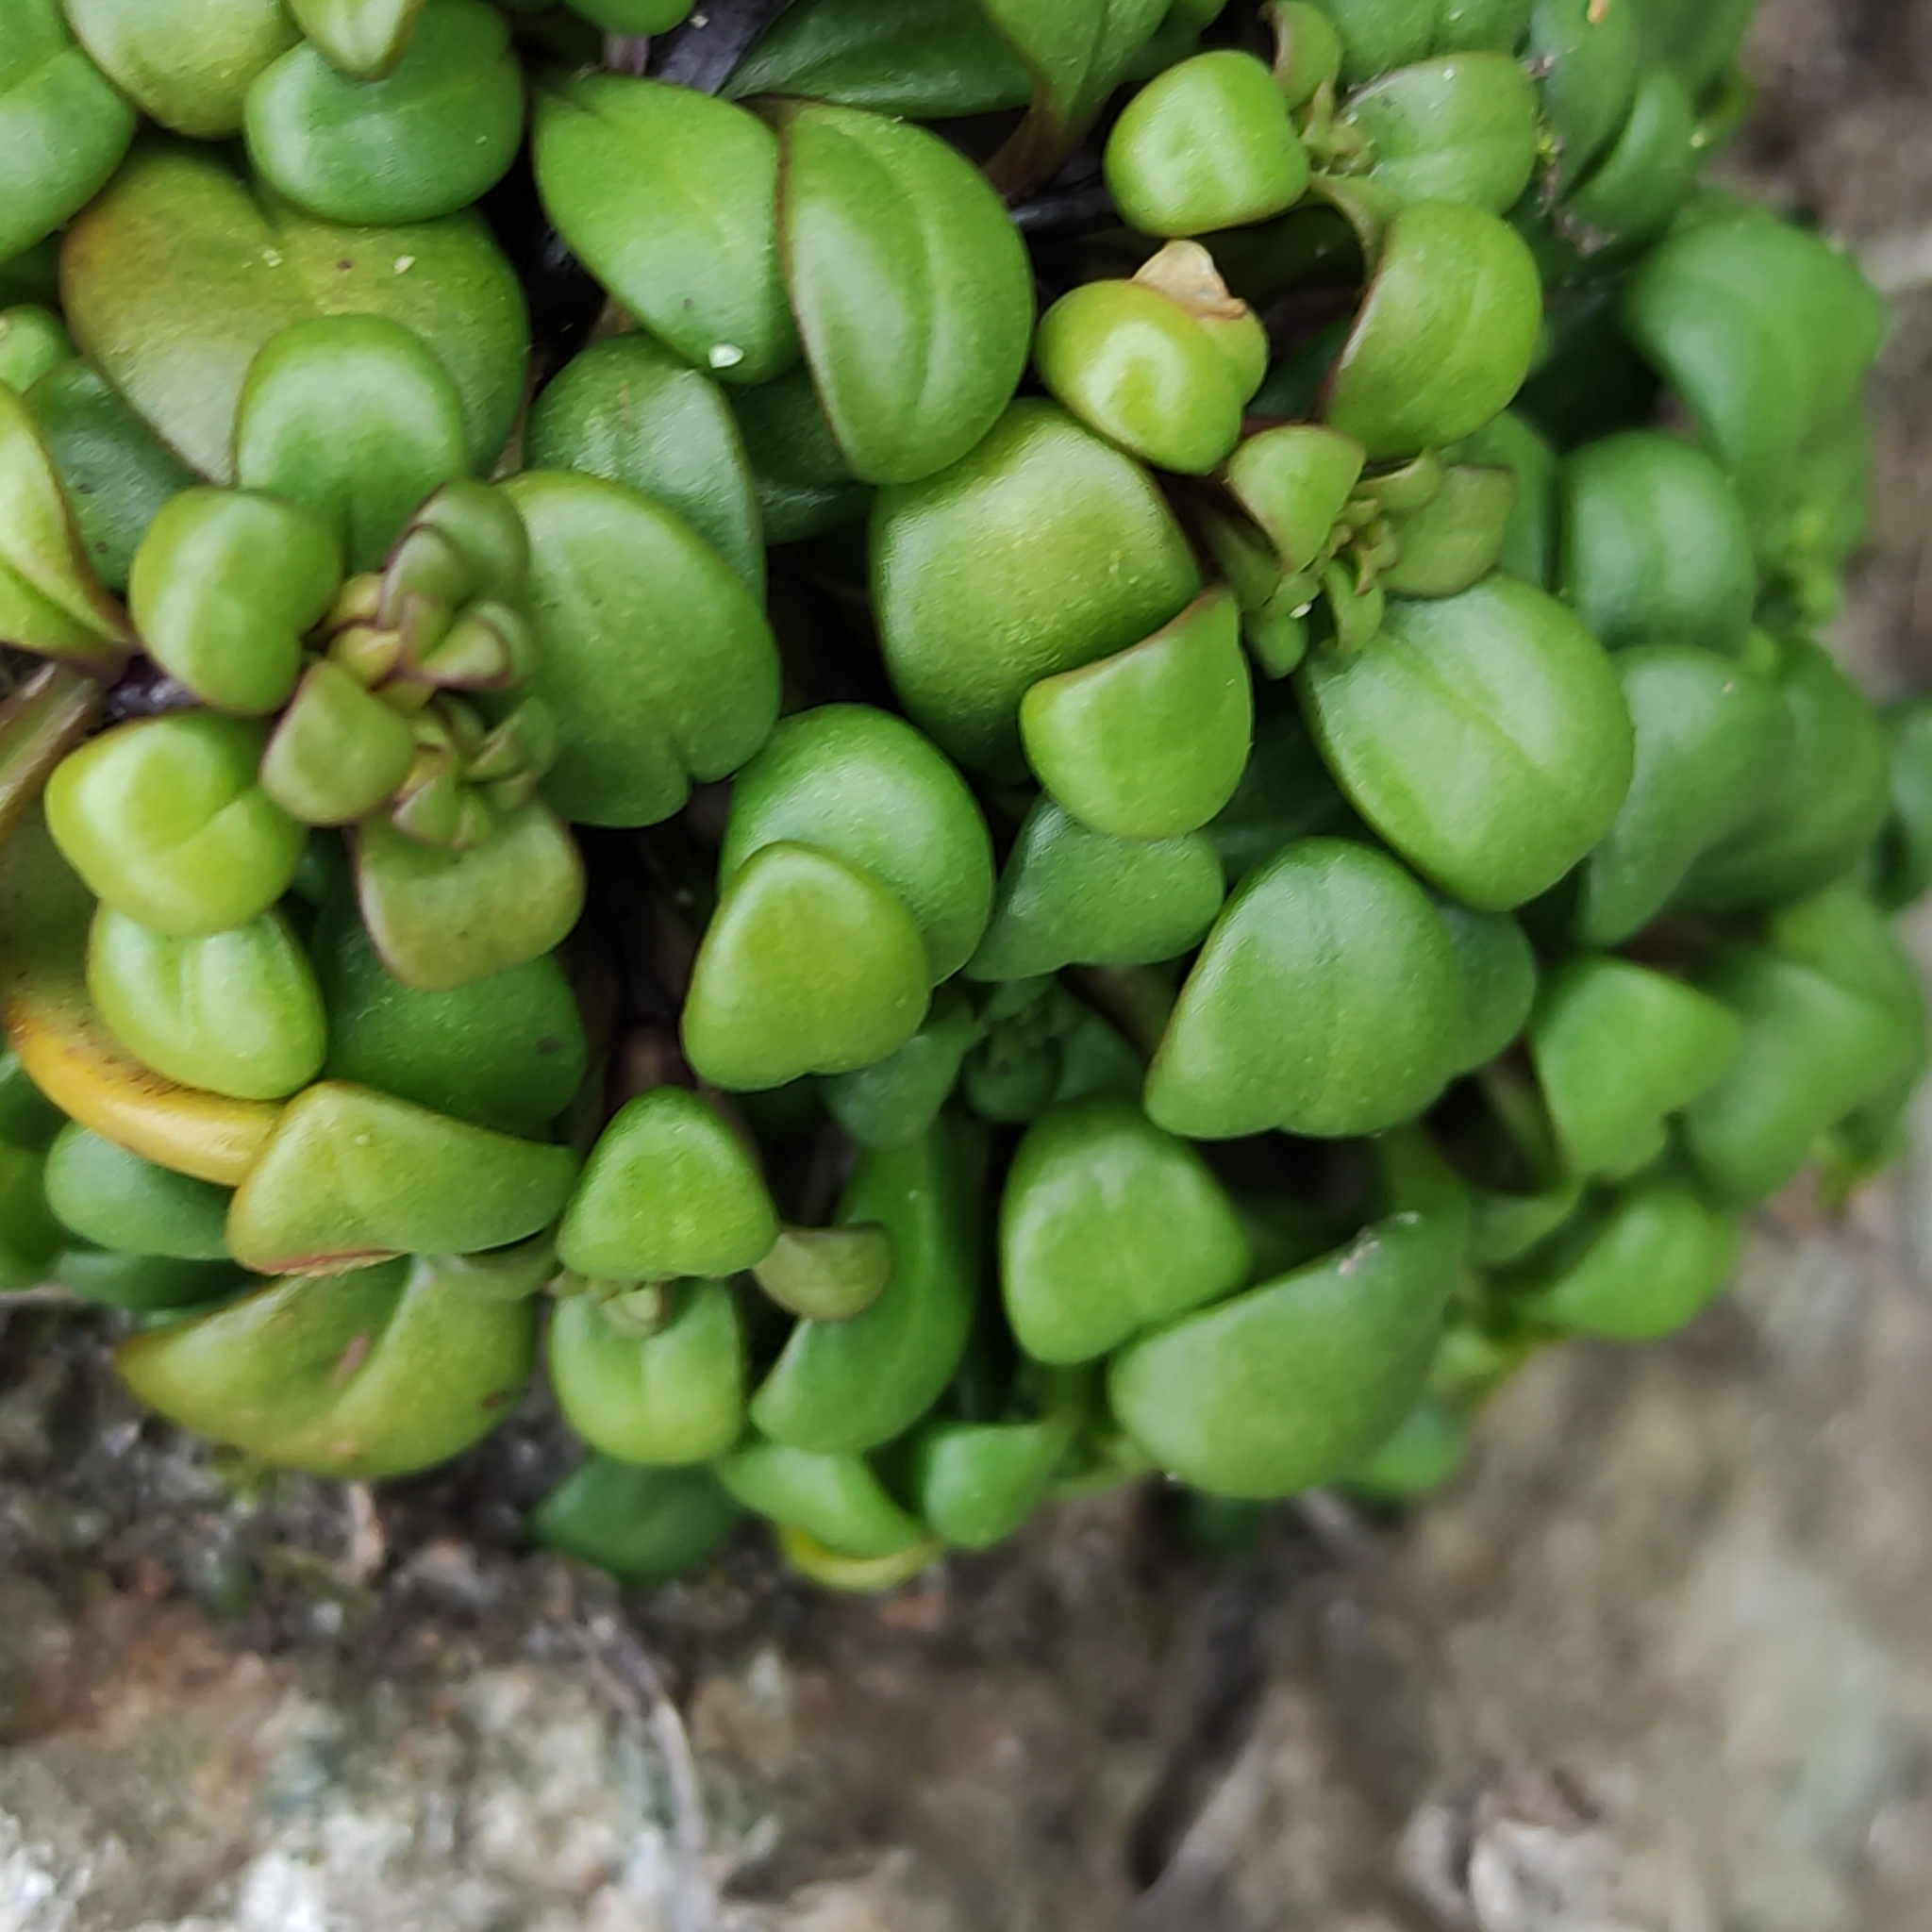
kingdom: Plantae
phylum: Tracheophyta
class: Magnoliopsida
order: Gentianales
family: Gentianaceae
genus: Gentianella
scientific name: Gentianella saxosa
